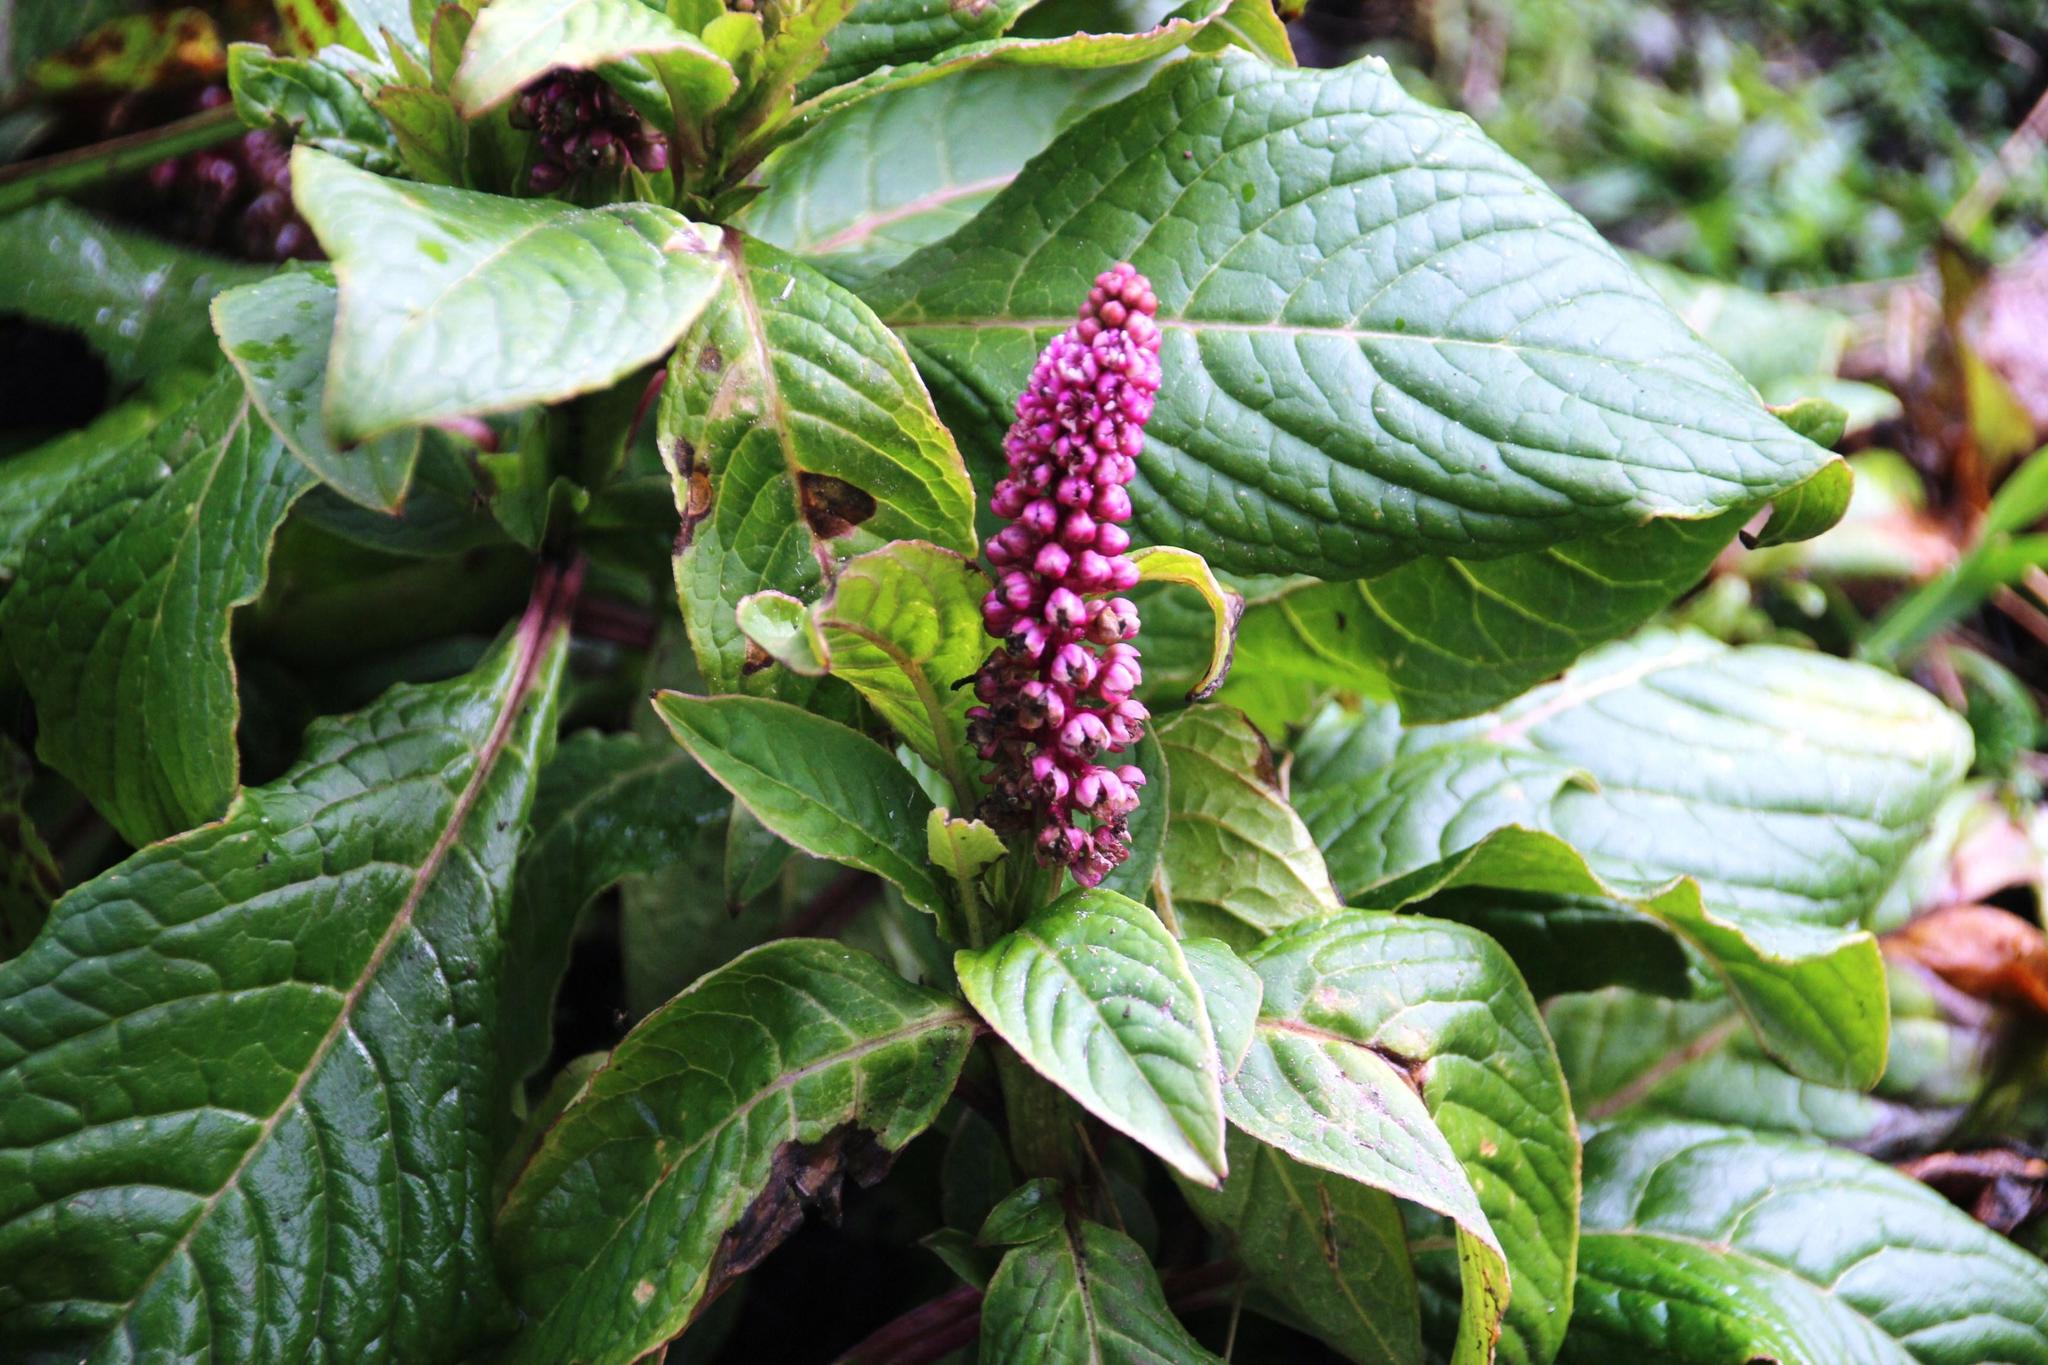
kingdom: Plantae
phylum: Tracheophyta
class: Magnoliopsida
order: Caryophyllales
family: Phytolaccaceae
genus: Phytolacca
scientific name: Phytolacca bogotensis
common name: Southern pokeweed
